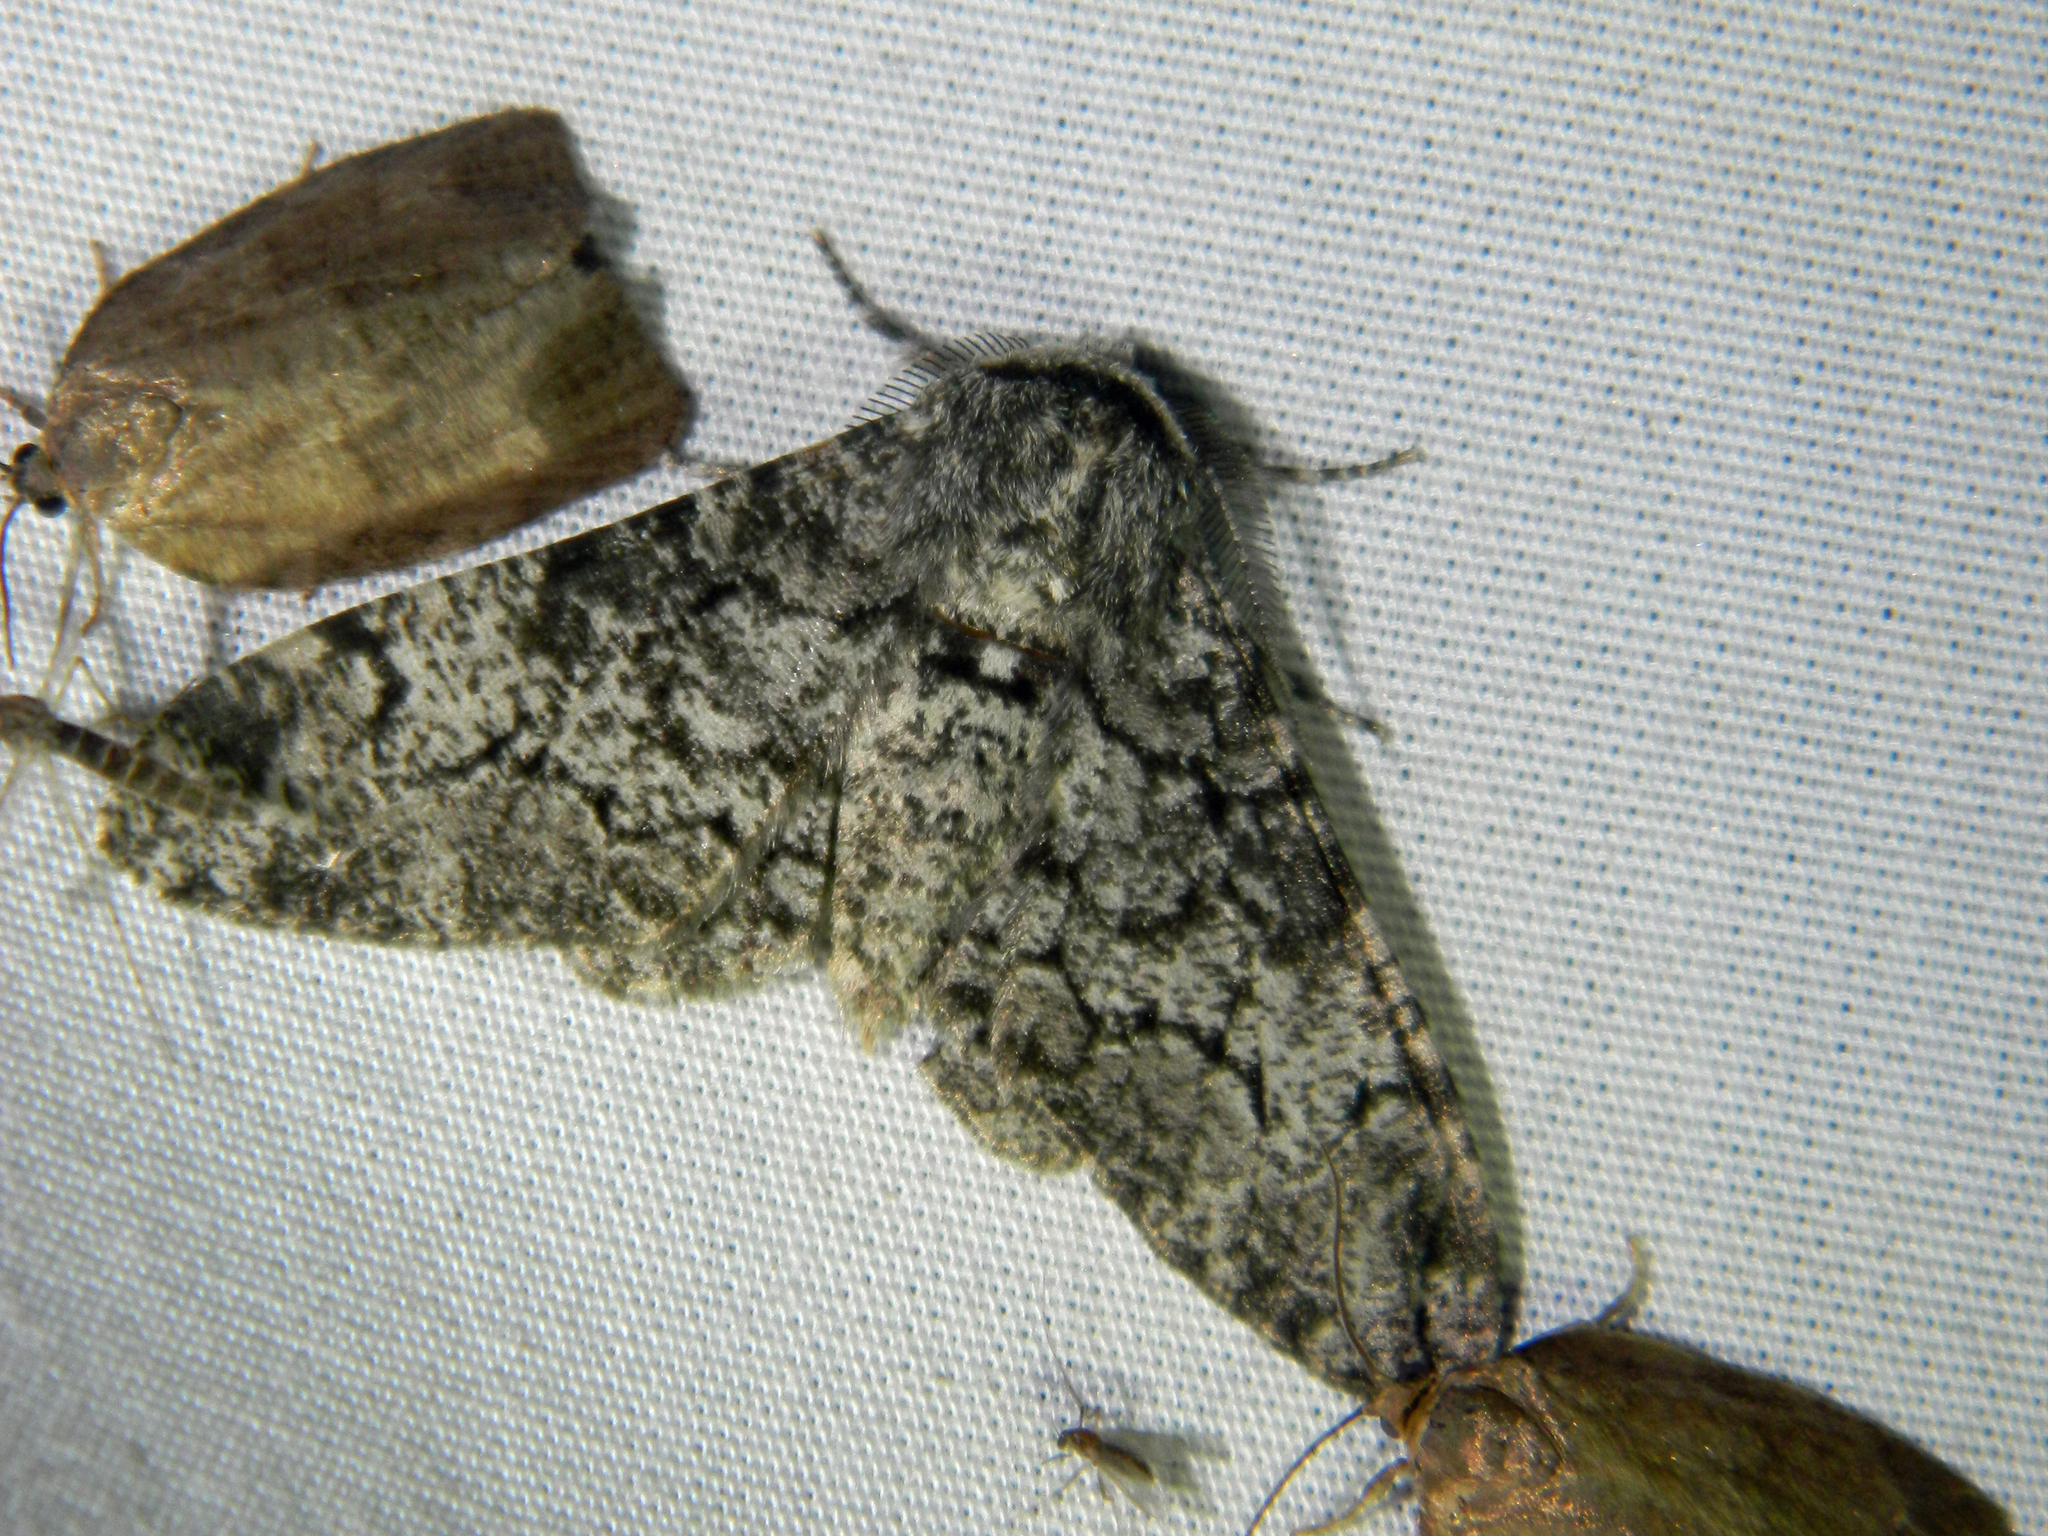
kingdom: Animalia
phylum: Arthropoda
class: Insecta
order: Lepidoptera
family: Geometridae
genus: Biston
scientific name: Biston betularia
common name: Peppered moth
